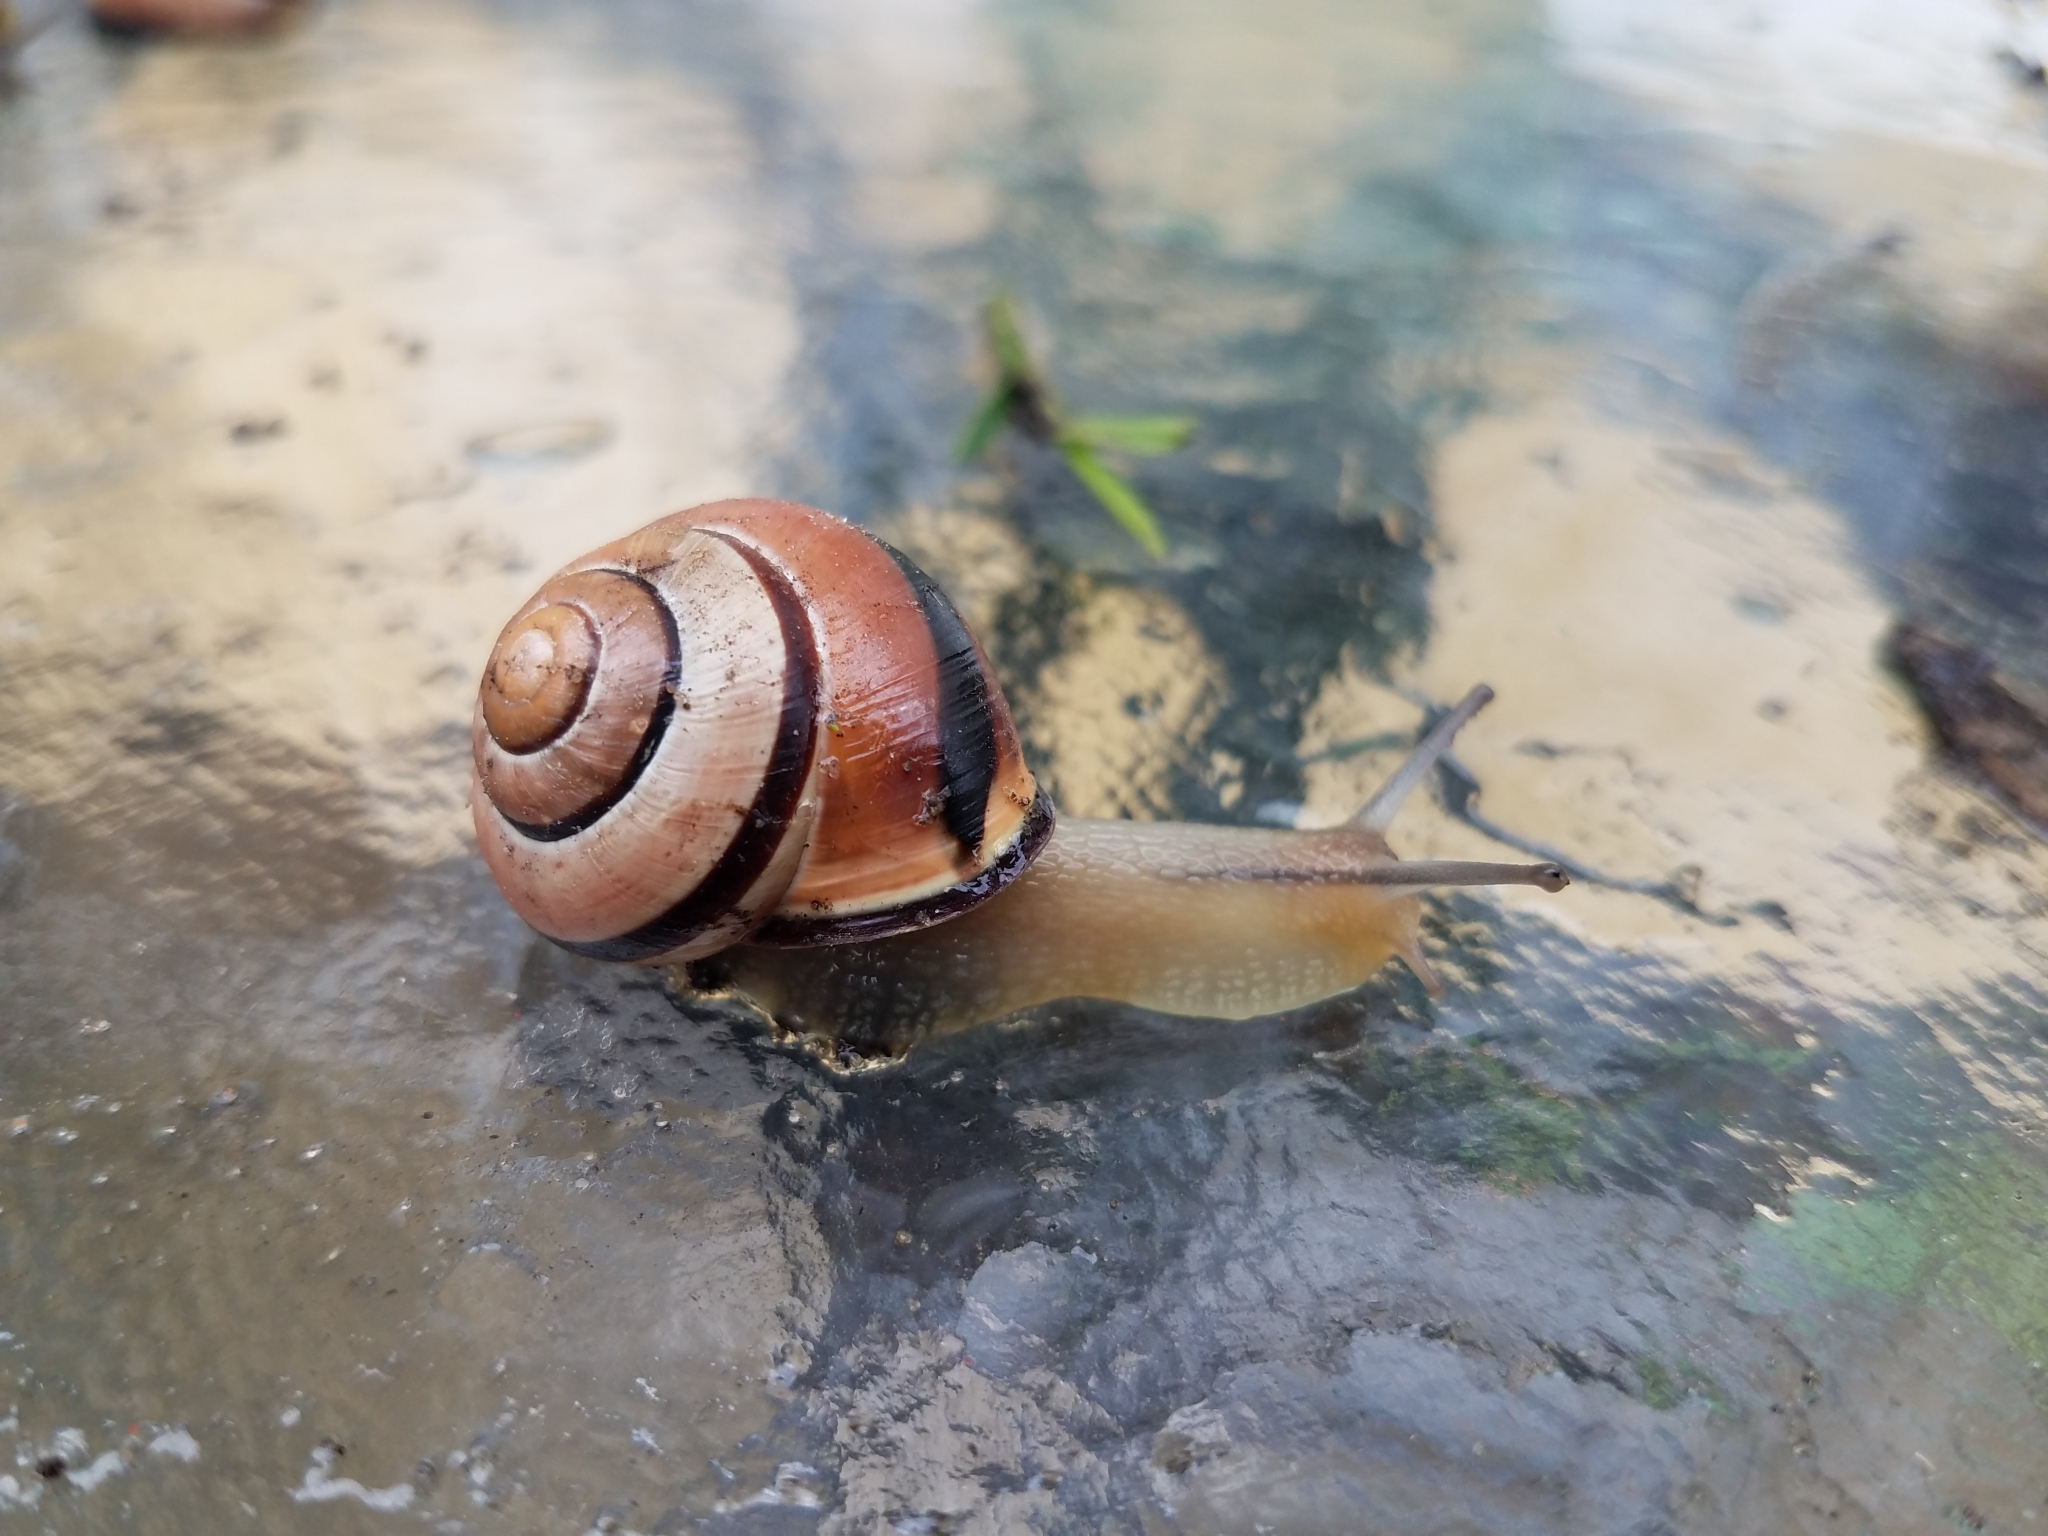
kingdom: Animalia
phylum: Mollusca
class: Gastropoda
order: Stylommatophora
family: Helicidae
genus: Cepaea
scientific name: Cepaea nemoralis
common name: Grovesnail
